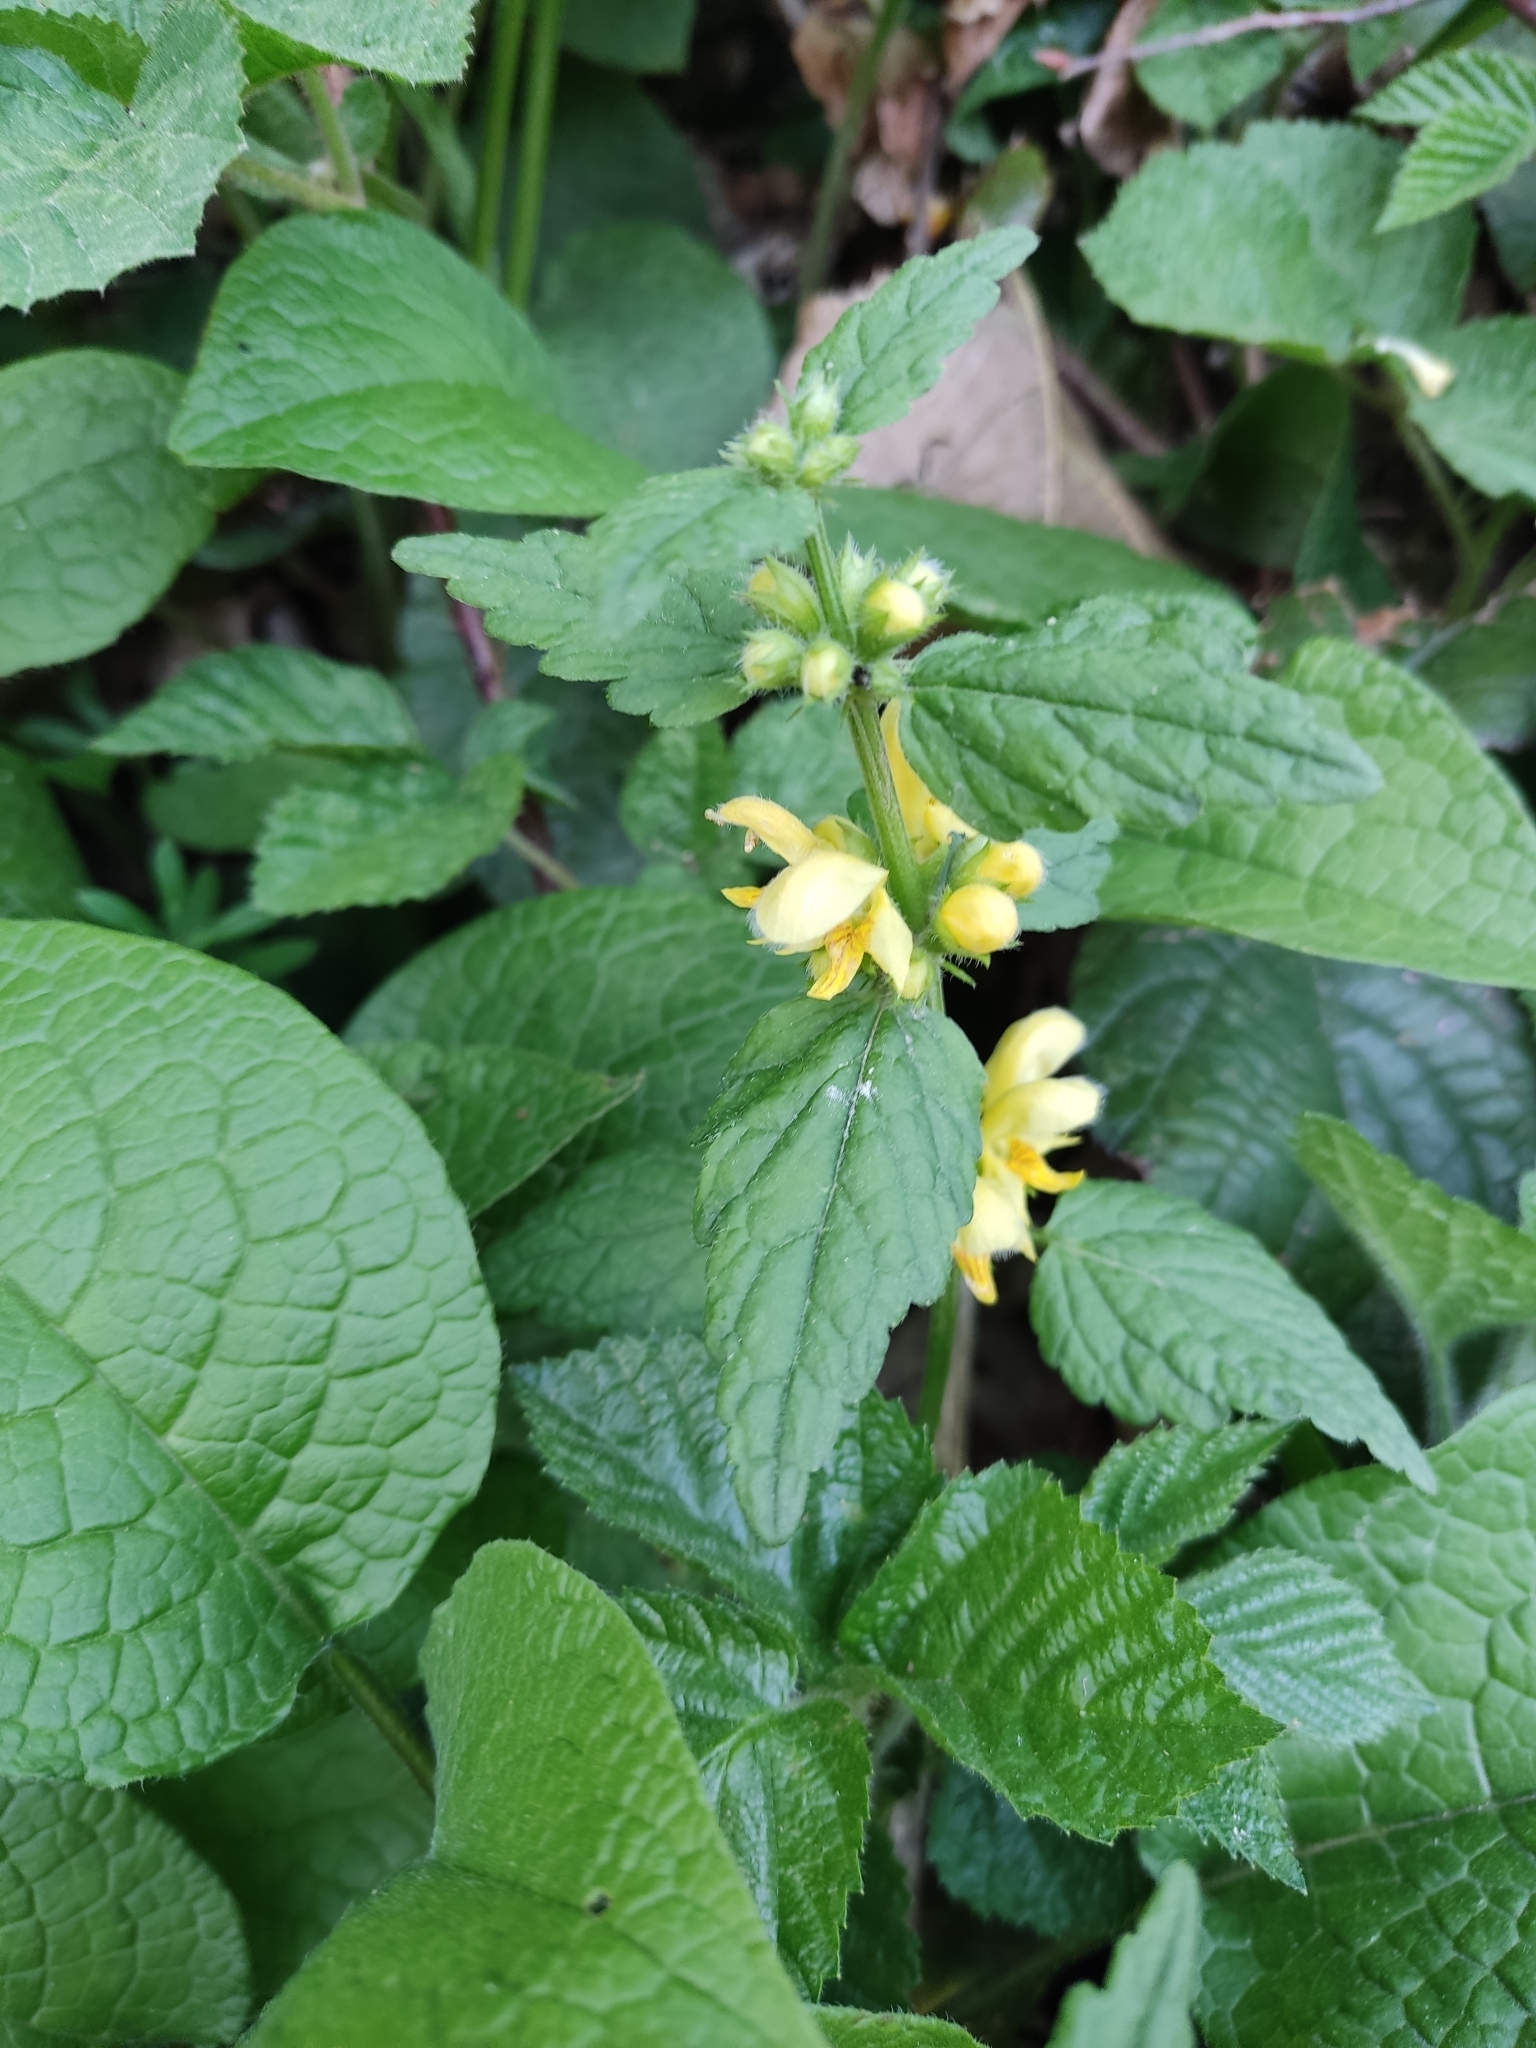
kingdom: Plantae
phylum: Tracheophyta
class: Magnoliopsida
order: Lamiales
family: Lamiaceae
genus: Lamium
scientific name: Lamium galeobdolon
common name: Yellow archangel
